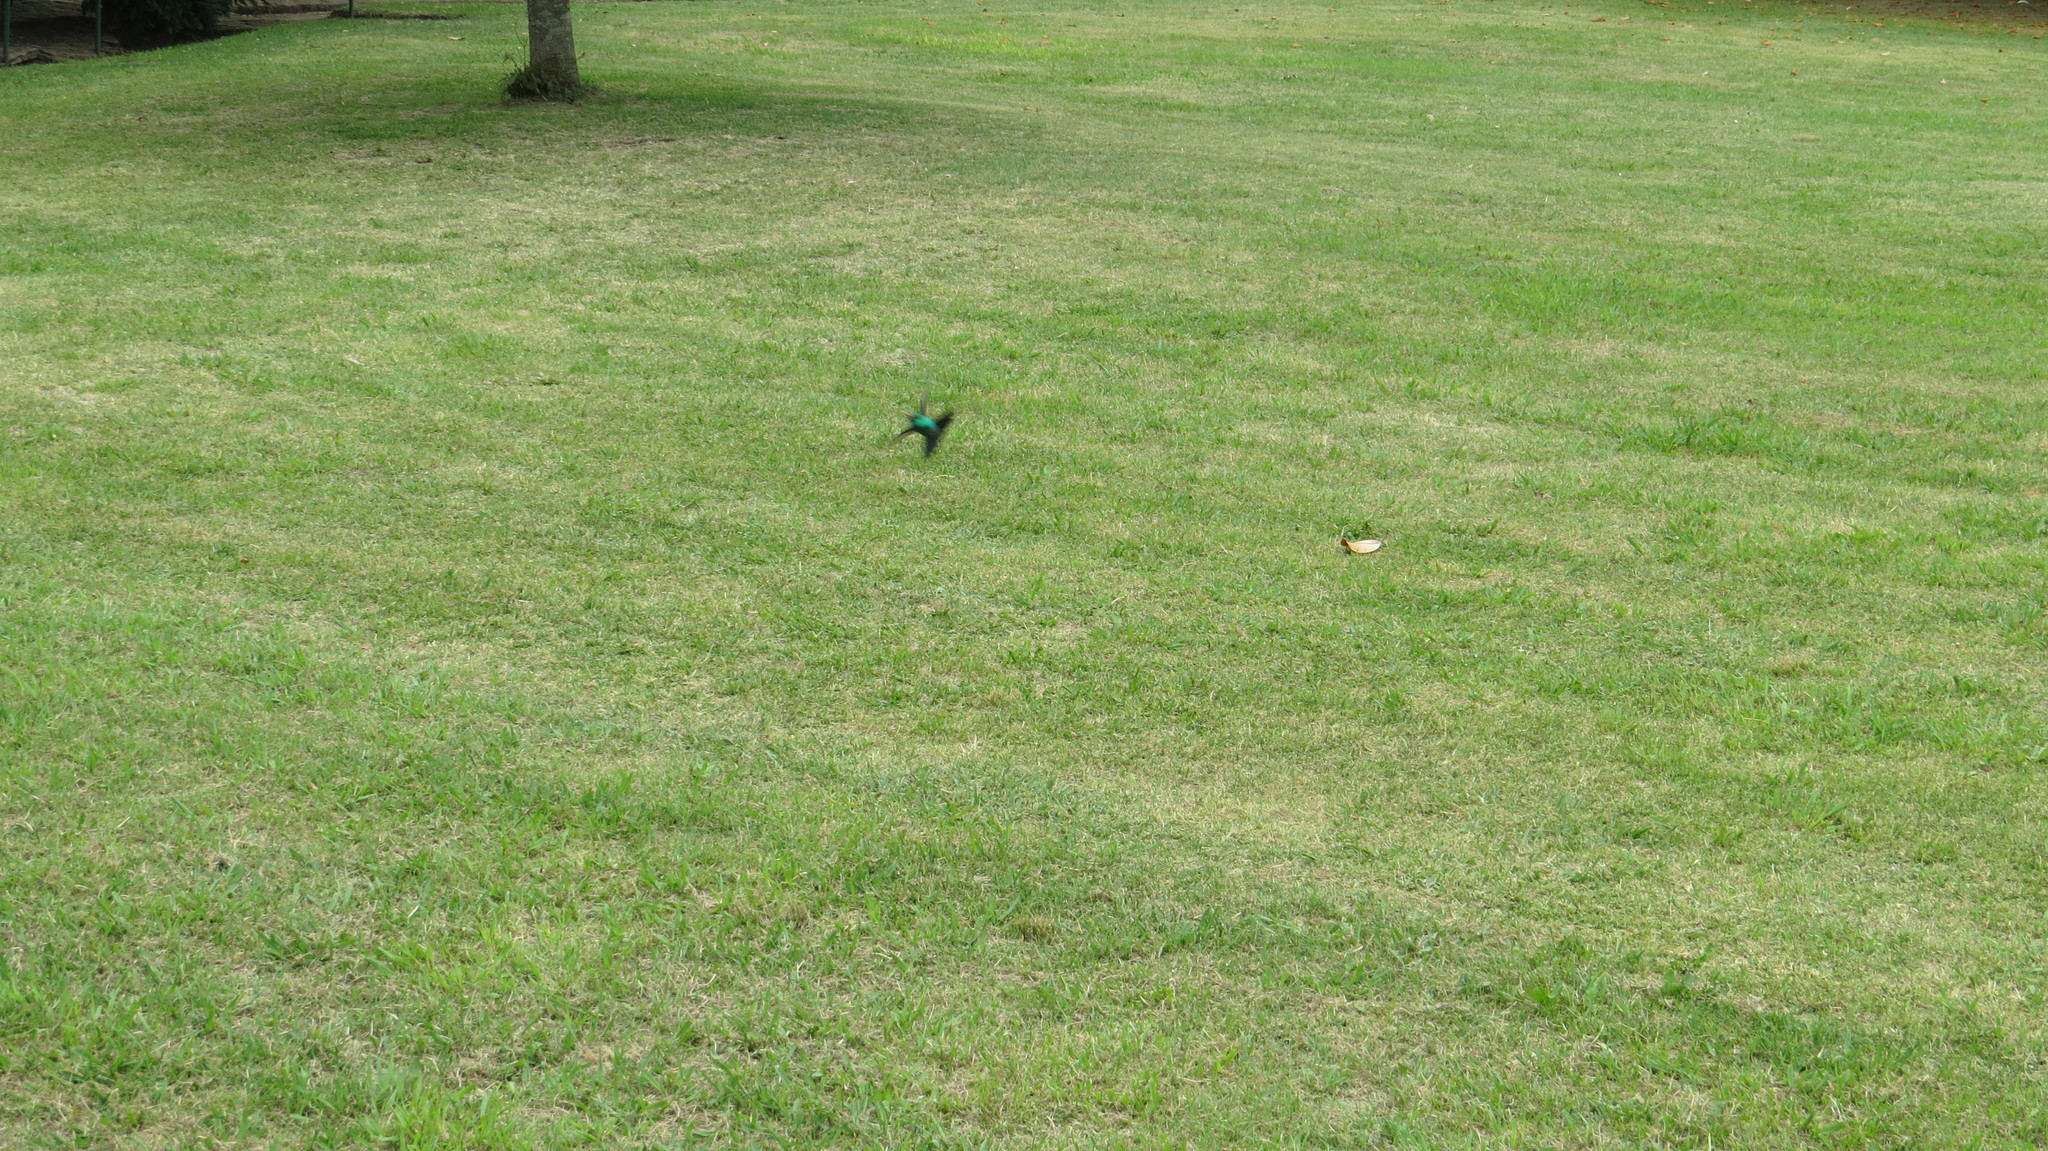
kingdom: Animalia
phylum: Chordata
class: Aves
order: Apodiformes
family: Trochilidae
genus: Chlorostilbon
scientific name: Chlorostilbon lucidus
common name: Glittering-bellied emerald
